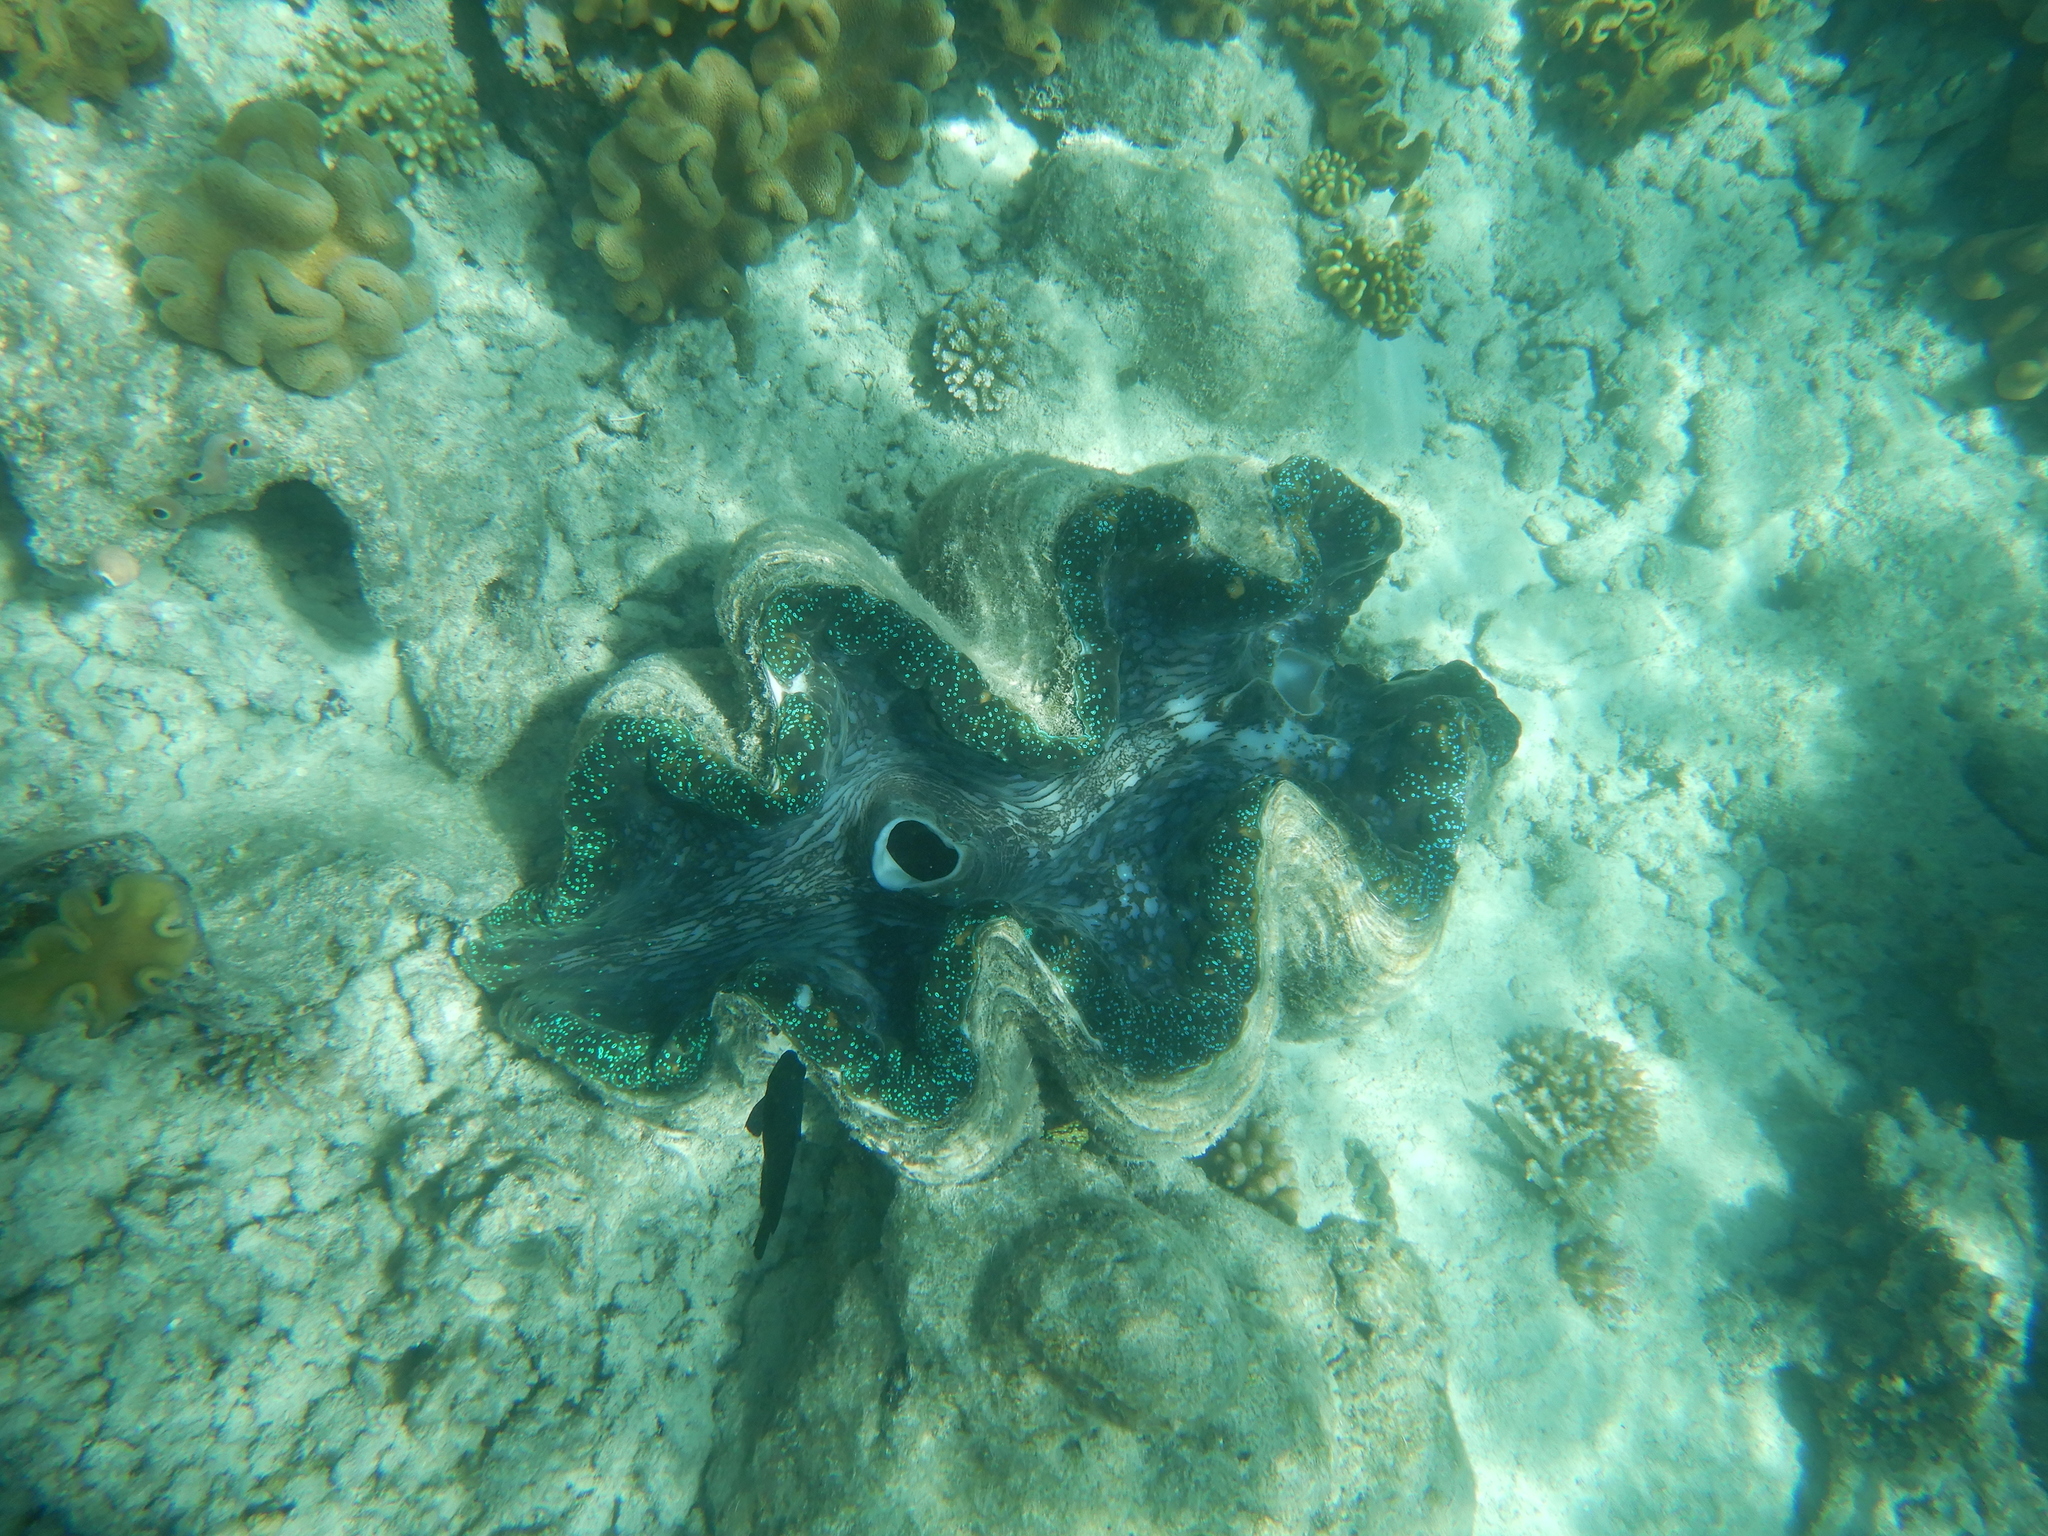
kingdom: Animalia
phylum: Mollusca
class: Bivalvia
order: Cardiida
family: Cardiidae
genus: Tridacna
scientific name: Tridacna gigas
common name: Giant clam
